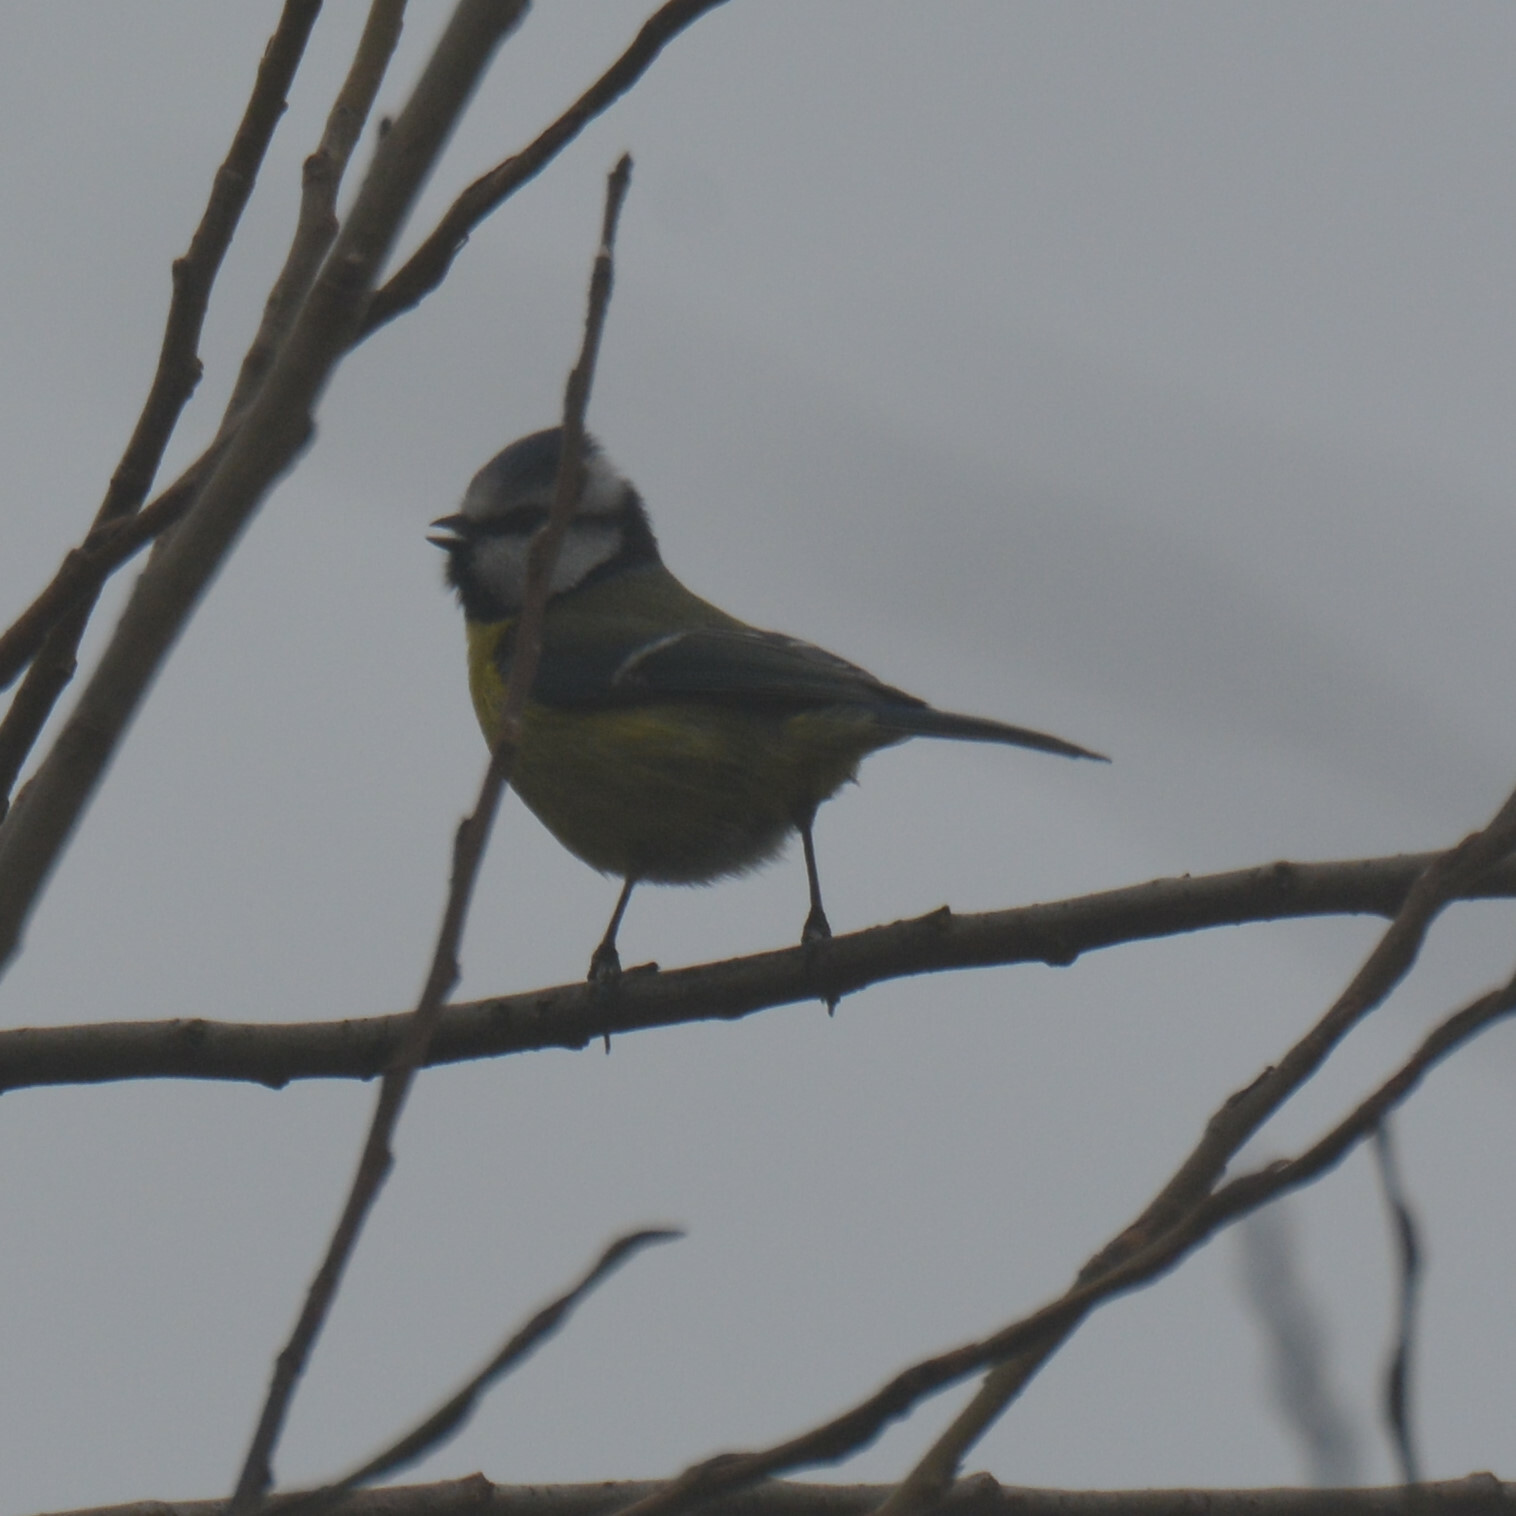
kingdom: Animalia
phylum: Chordata
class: Aves
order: Passeriformes
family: Paridae
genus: Cyanistes
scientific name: Cyanistes caeruleus
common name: Eurasian blue tit
